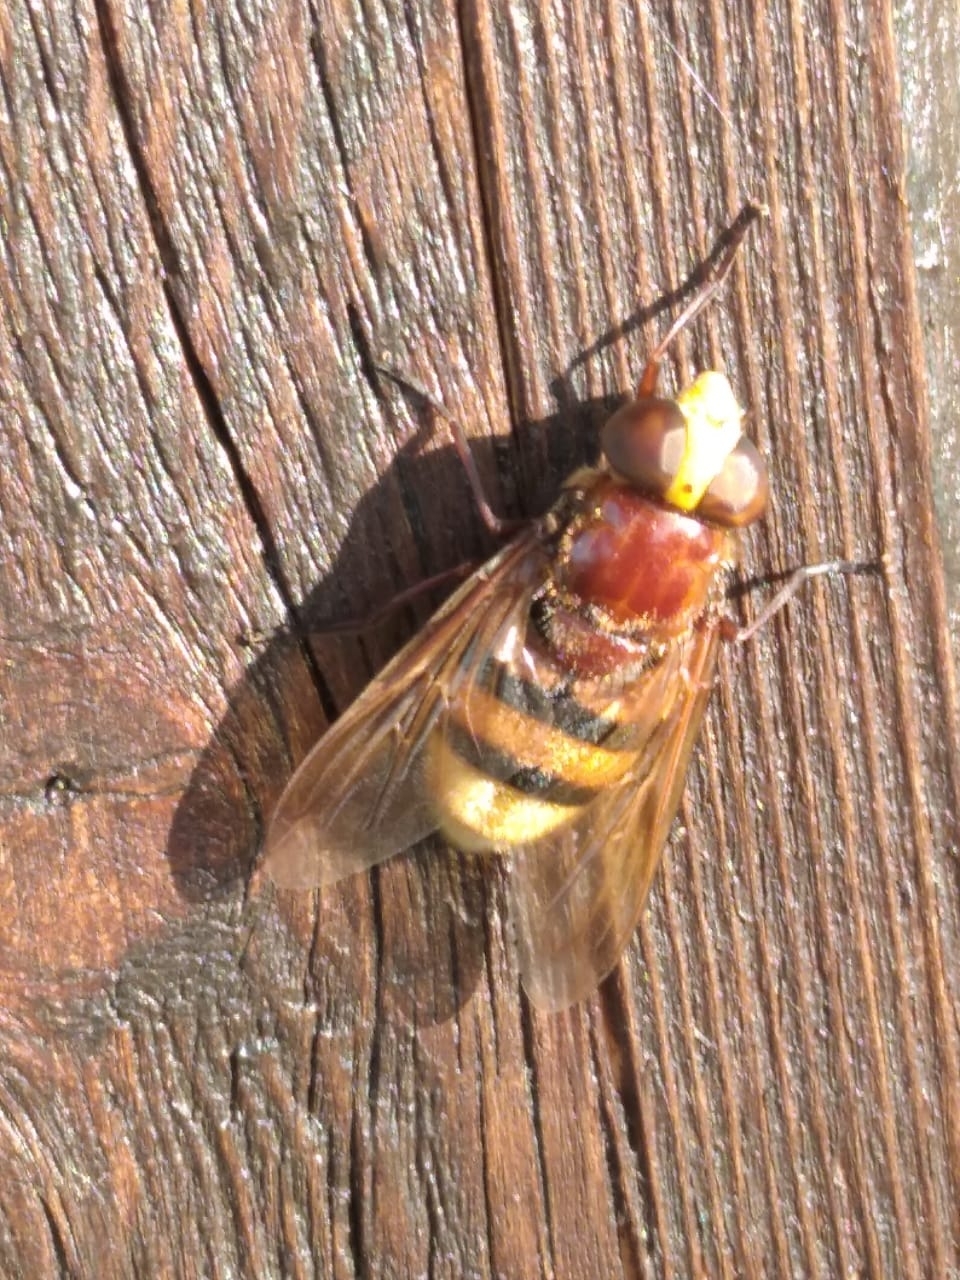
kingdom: Animalia
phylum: Arthropoda
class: Insecta
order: Diptera
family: Syrphidae
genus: Volucella
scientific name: Volucella zonaria
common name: Hornet hoverfly
